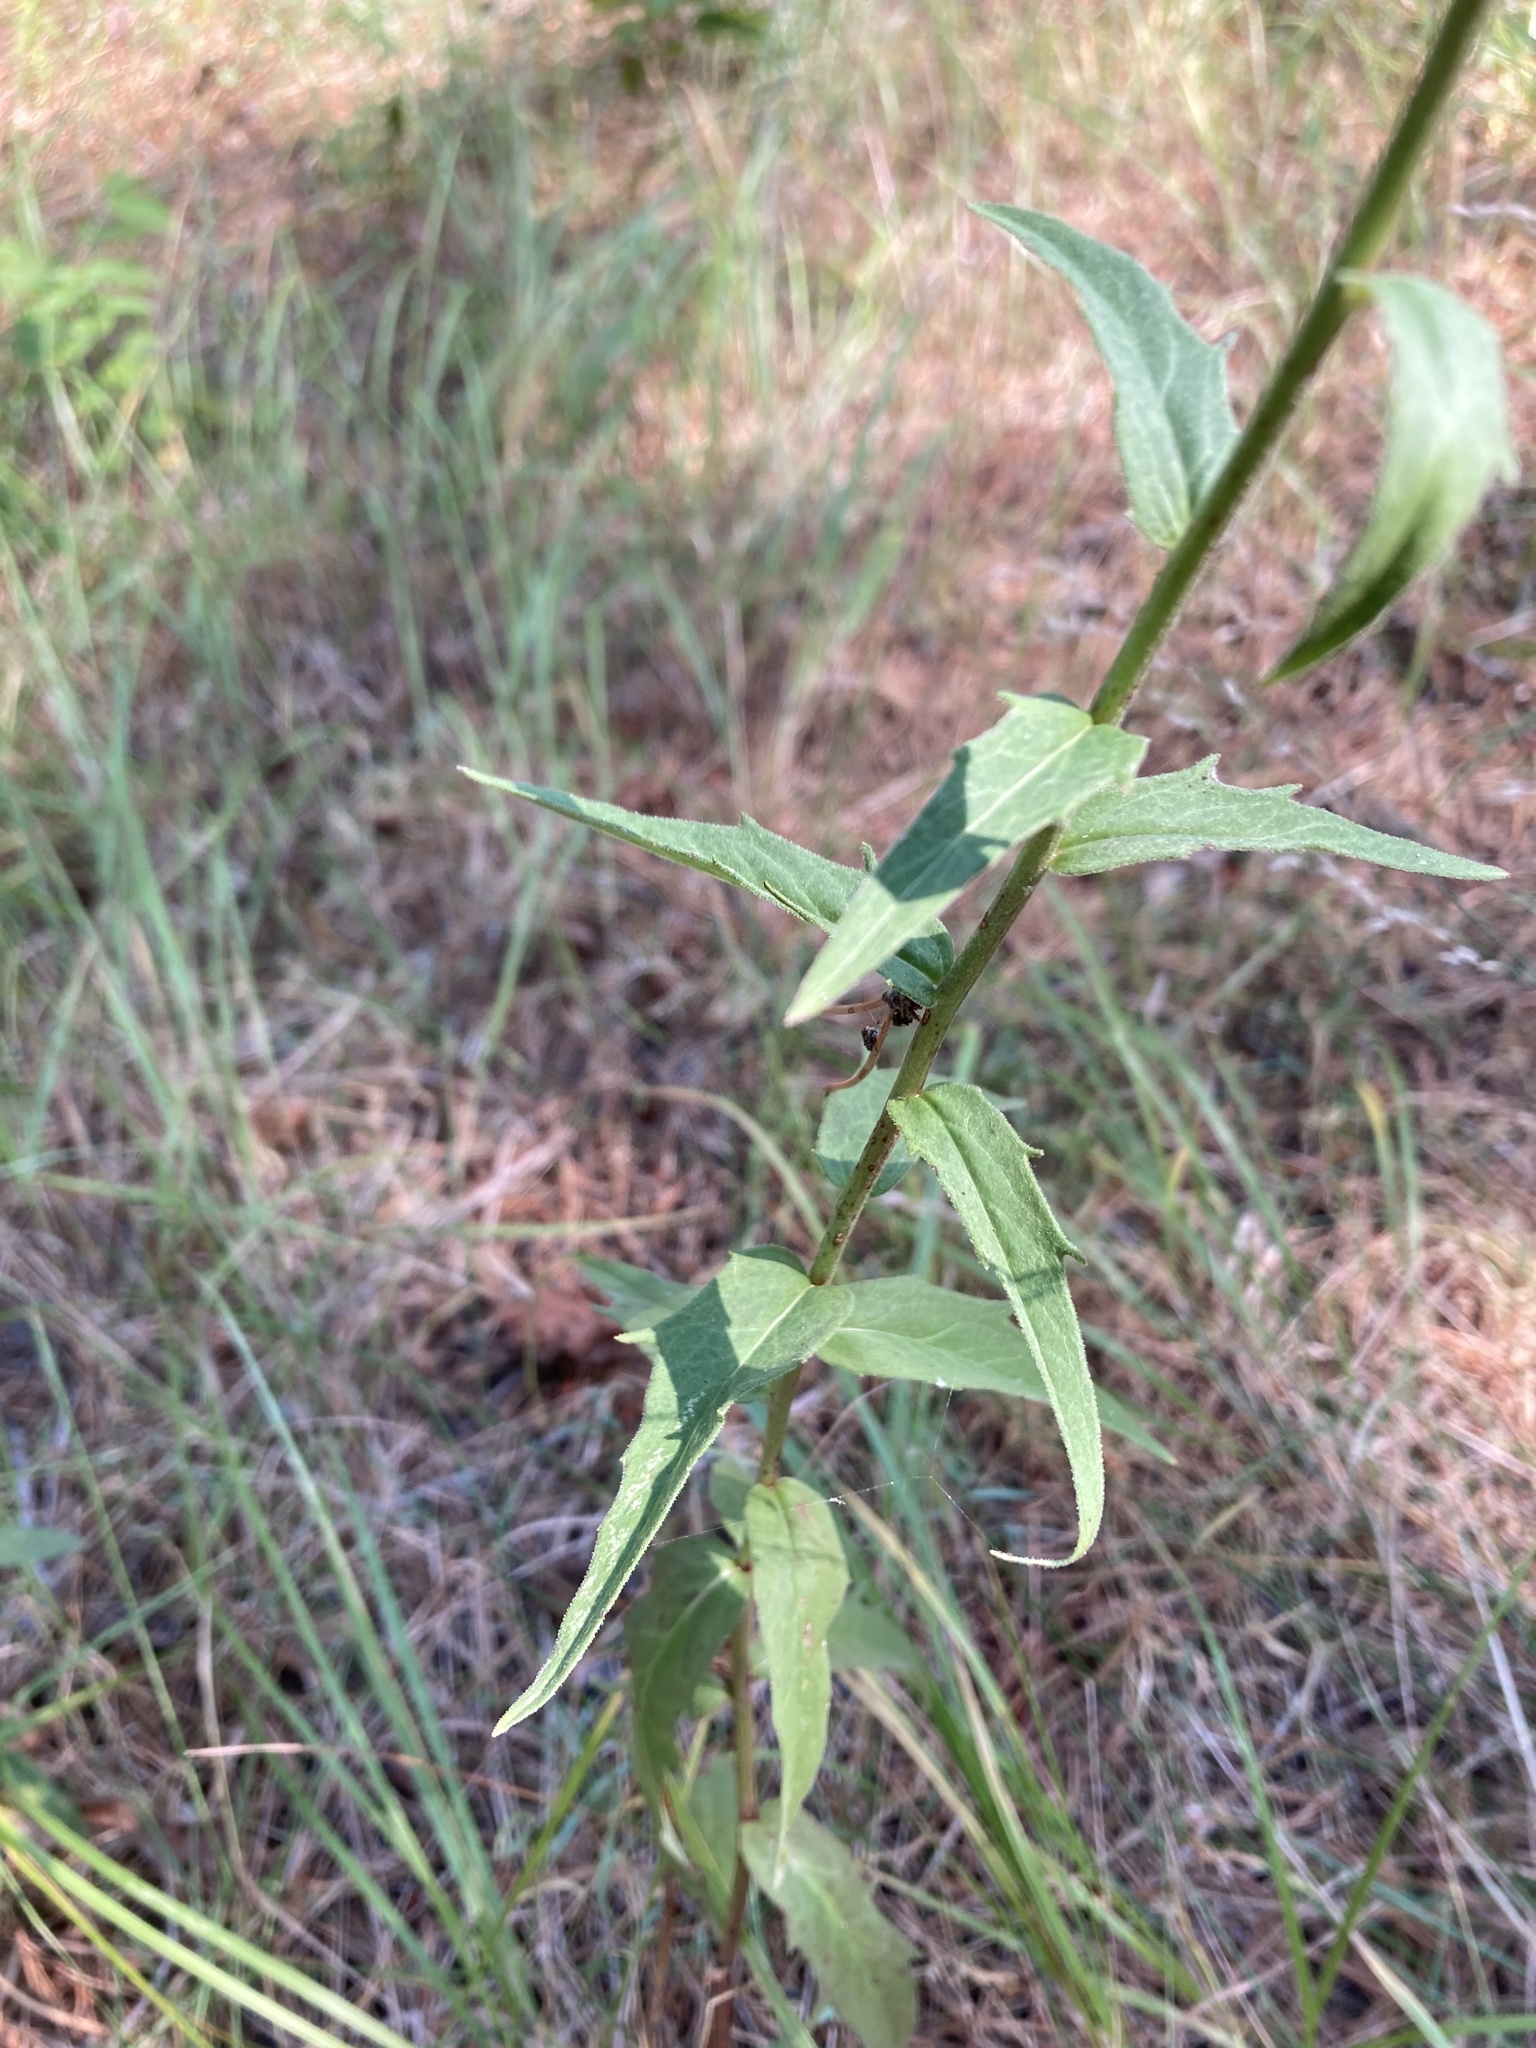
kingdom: Plantae
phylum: Tracheophyta
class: Magnoliopsida
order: Asterales
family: Asteraceae
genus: Hieracium
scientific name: Hieracium umbellatum
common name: Northern hawkweed
